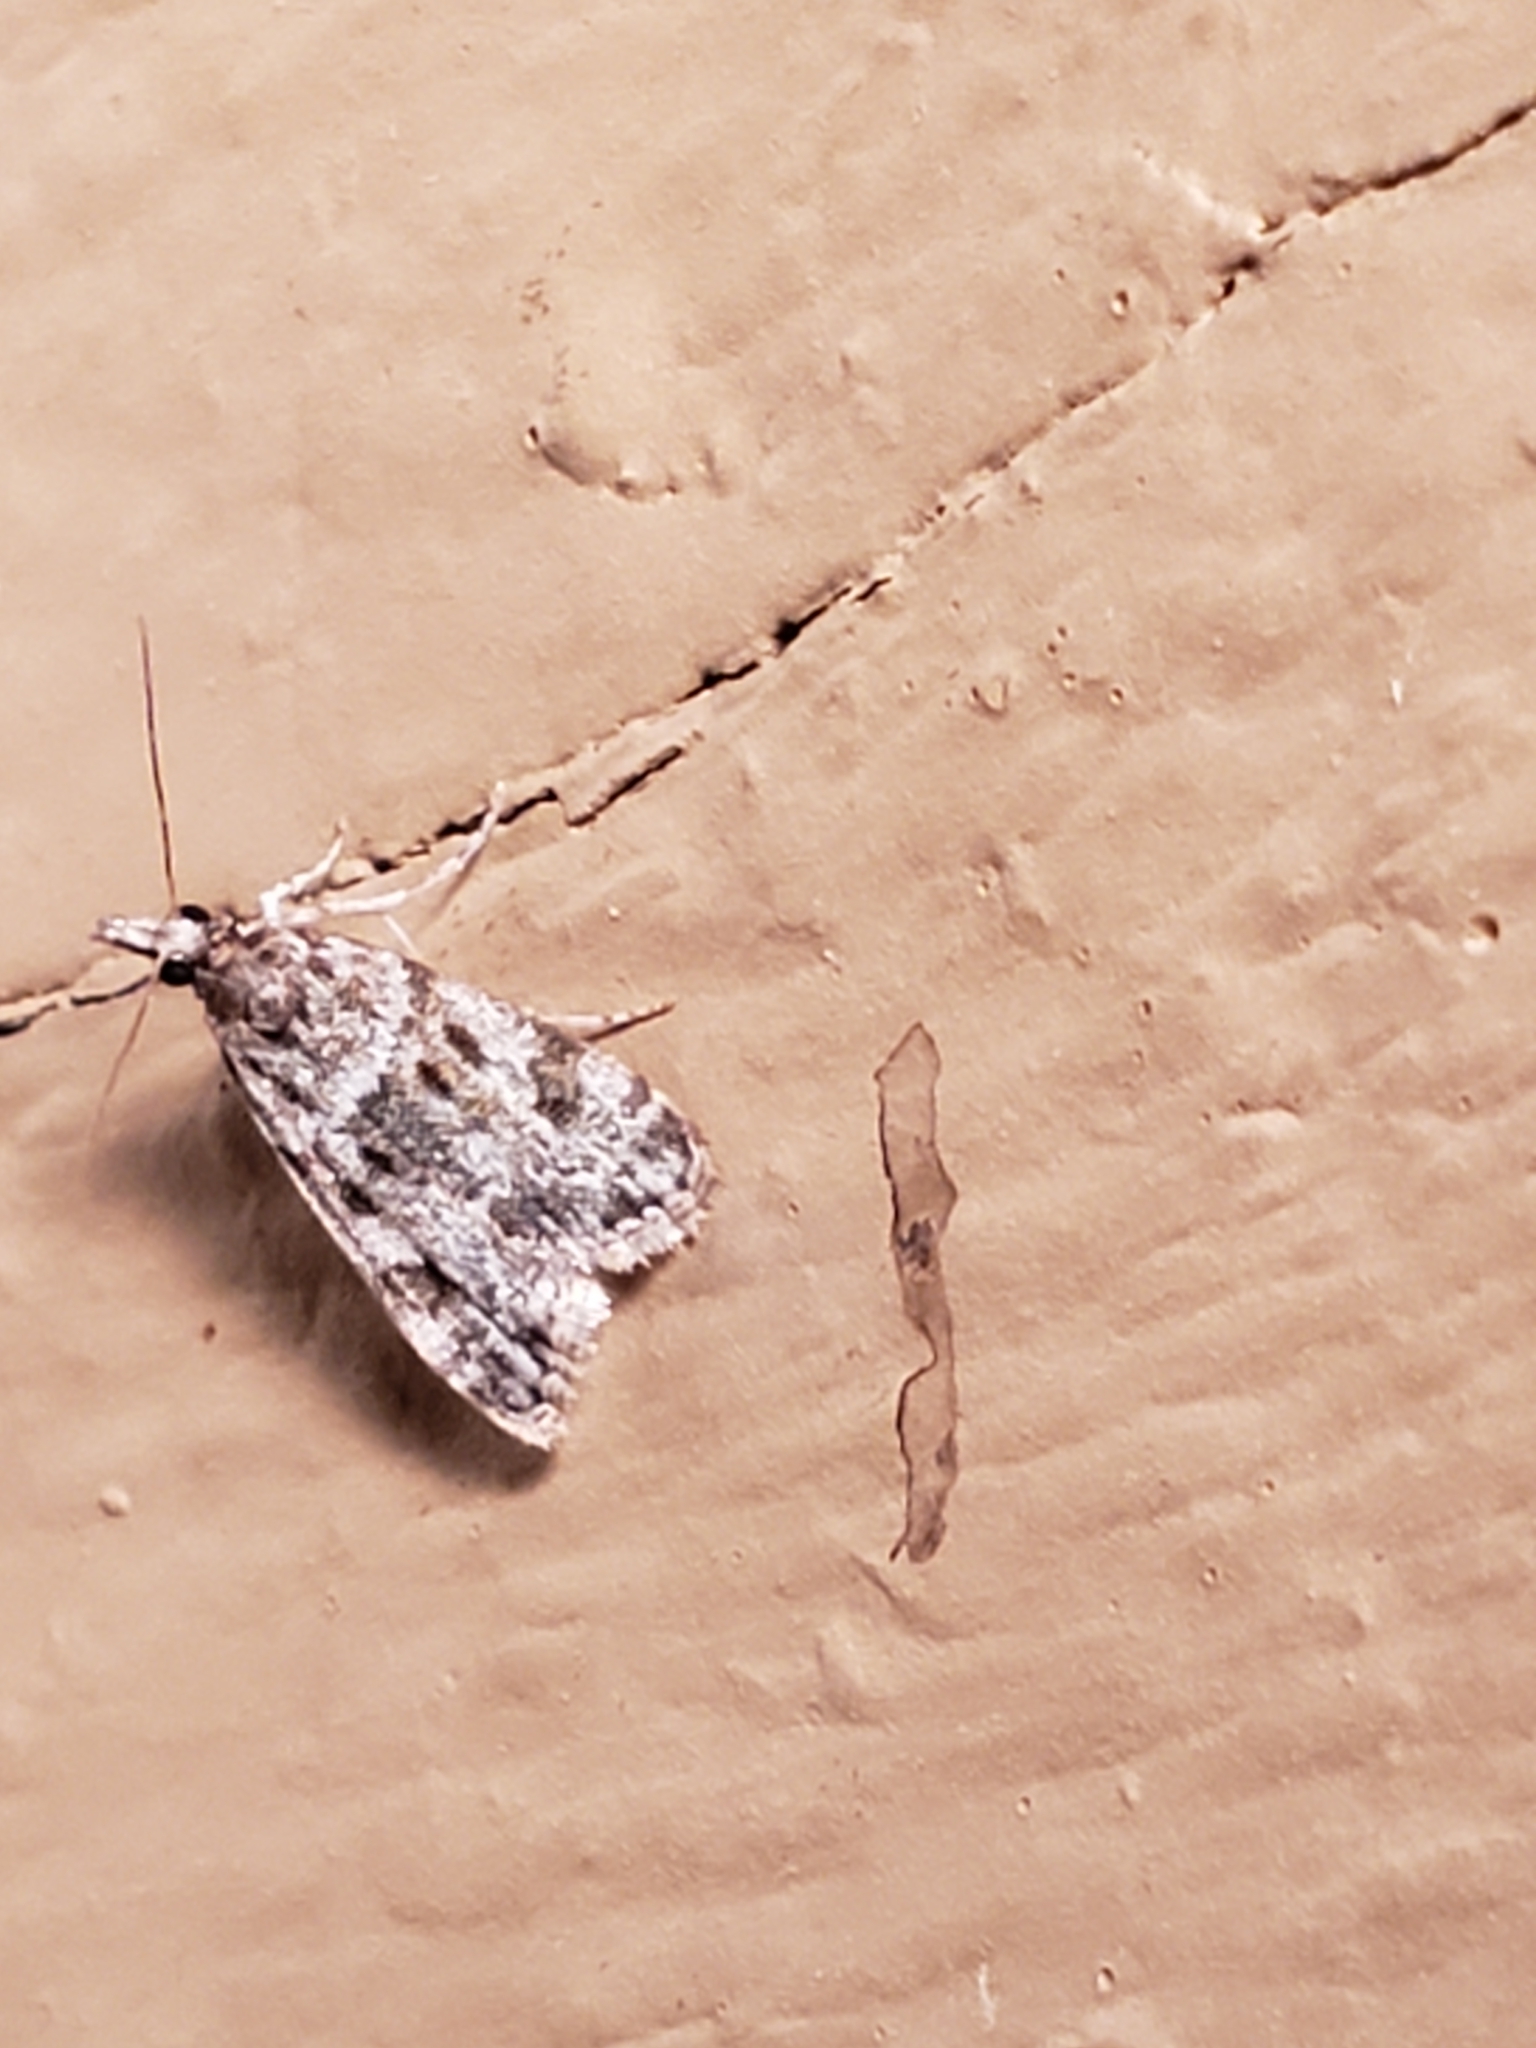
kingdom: Animalia
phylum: Arthropoda
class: Insecta
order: Lepidoptera
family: Crambidae
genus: Eudonia
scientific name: Eudonia heterosalis
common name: Mcdunnough's eudonia
